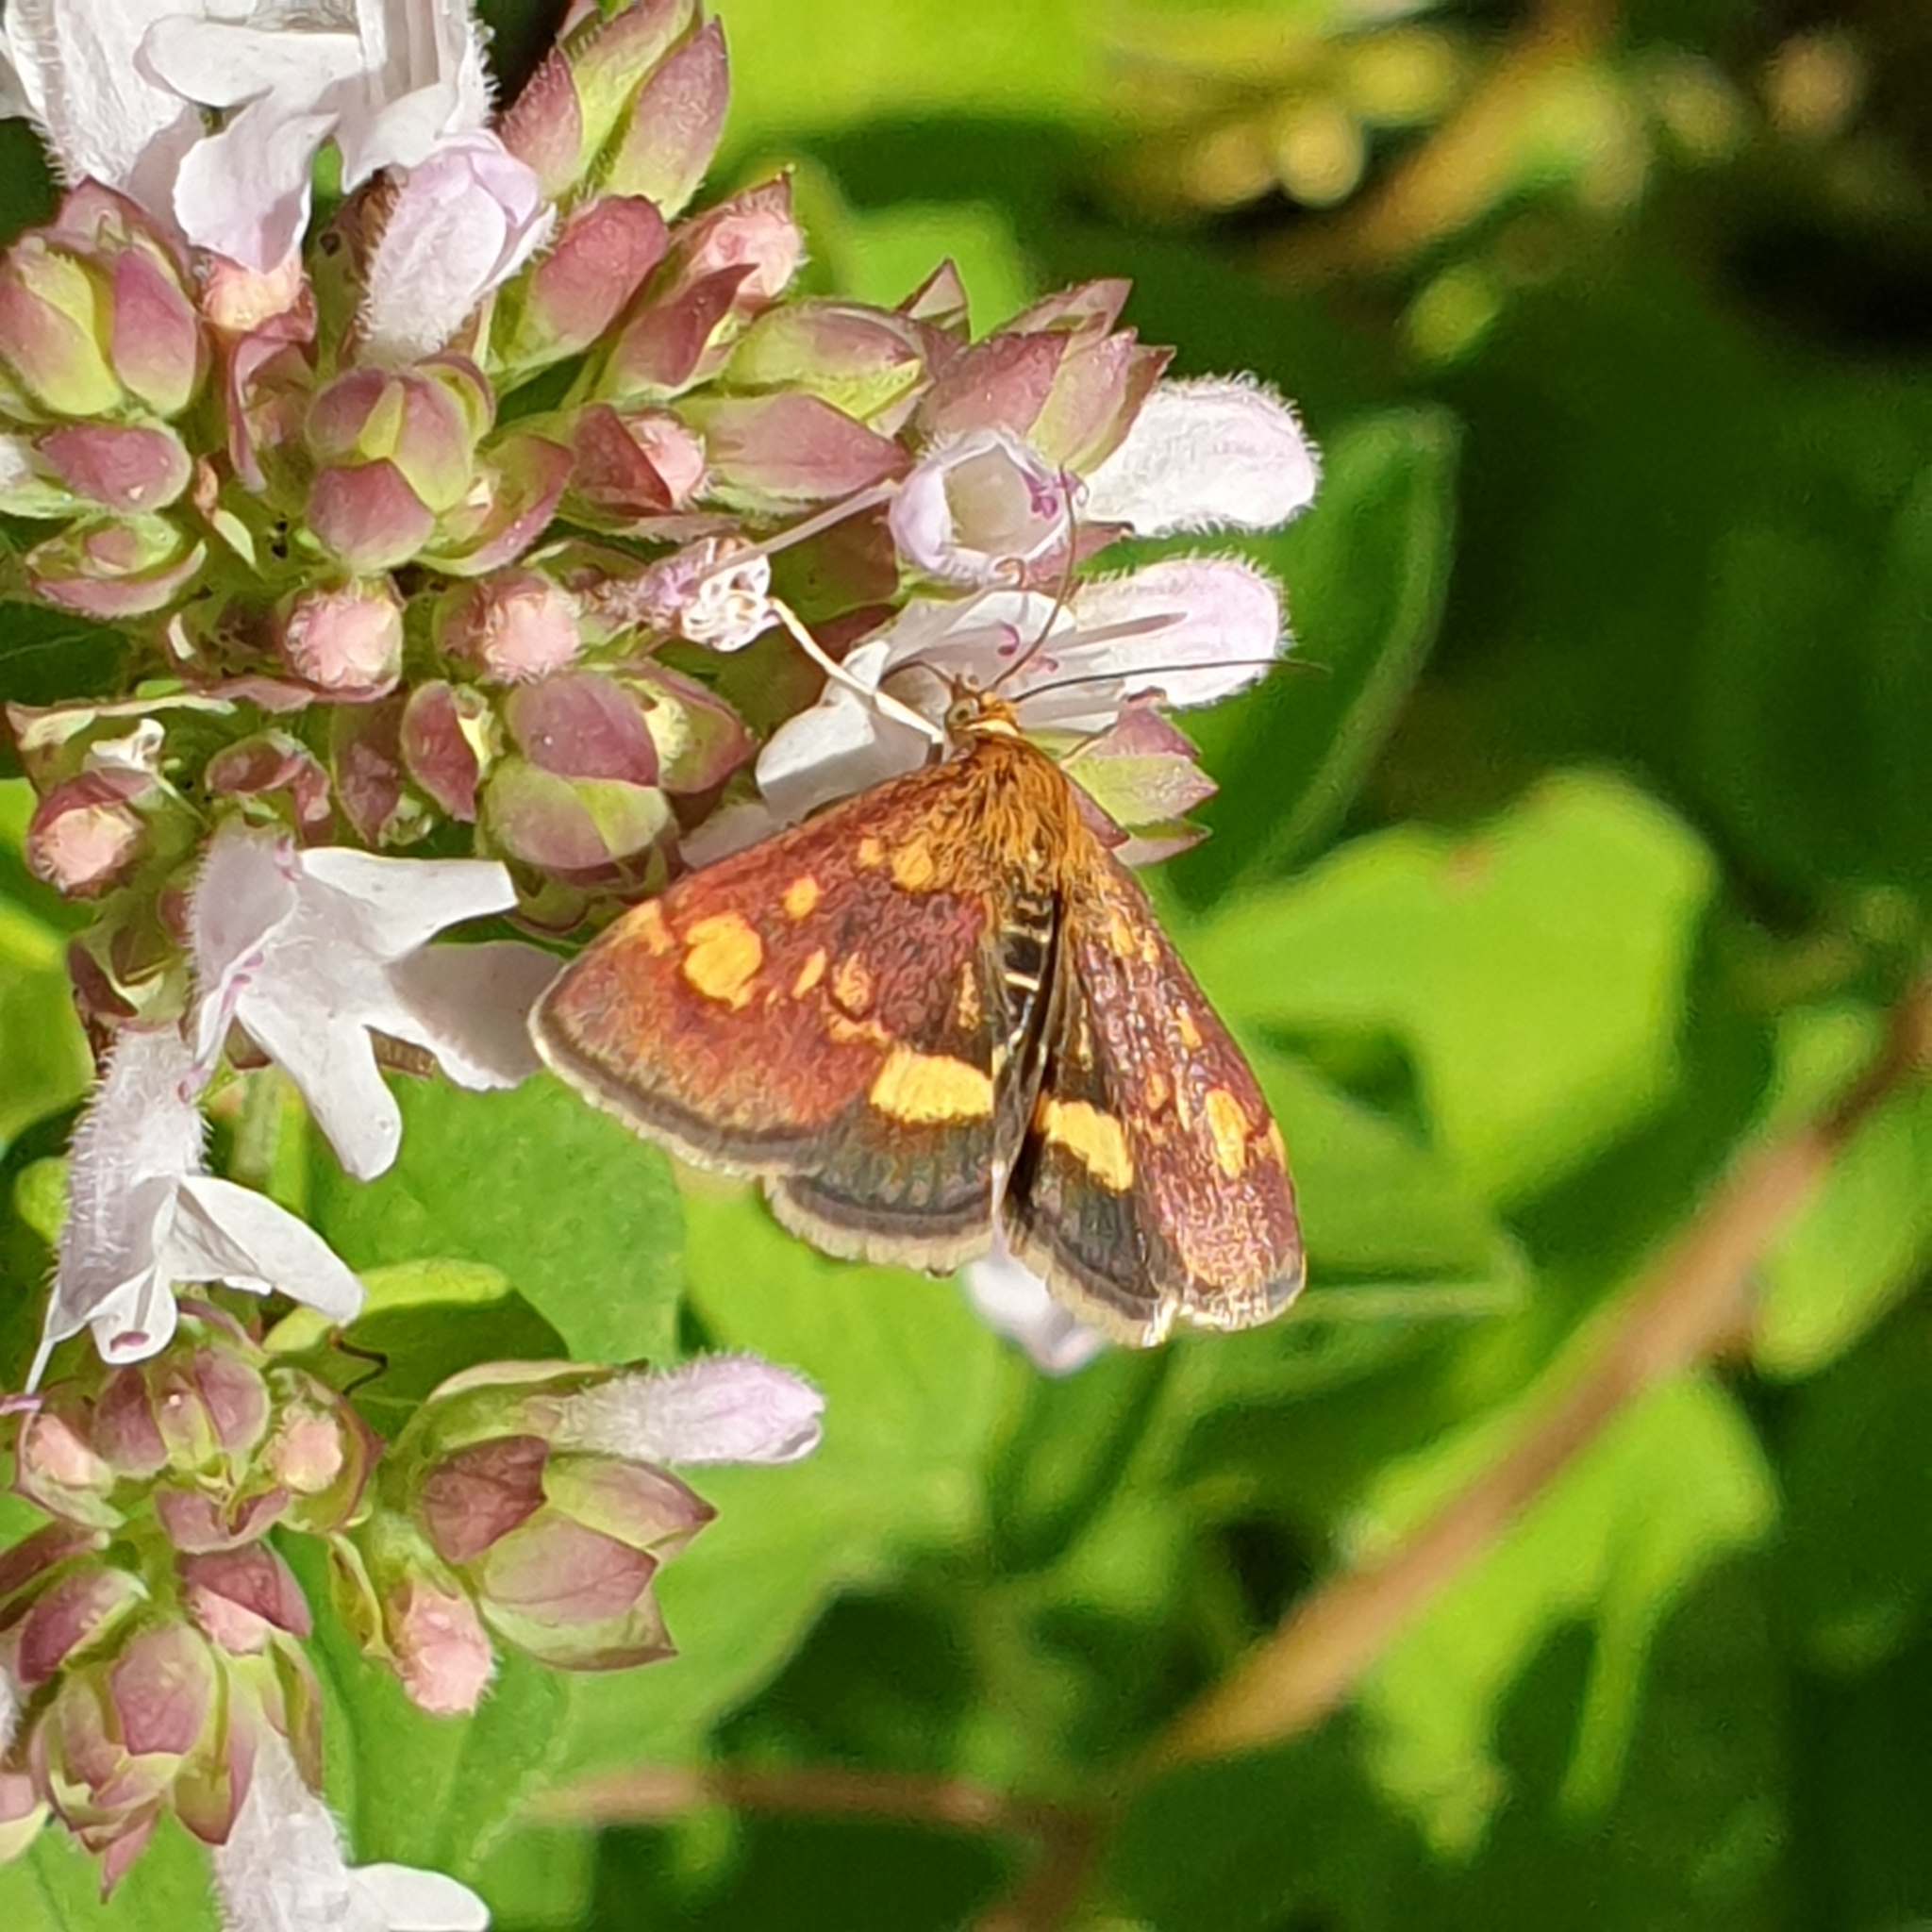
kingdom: Animalia
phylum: Arthropoda
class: Insecta
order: Lepidoptera
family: Crambidae
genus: Pyrausta
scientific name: Pyrausta aurata
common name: Small purple & gold
